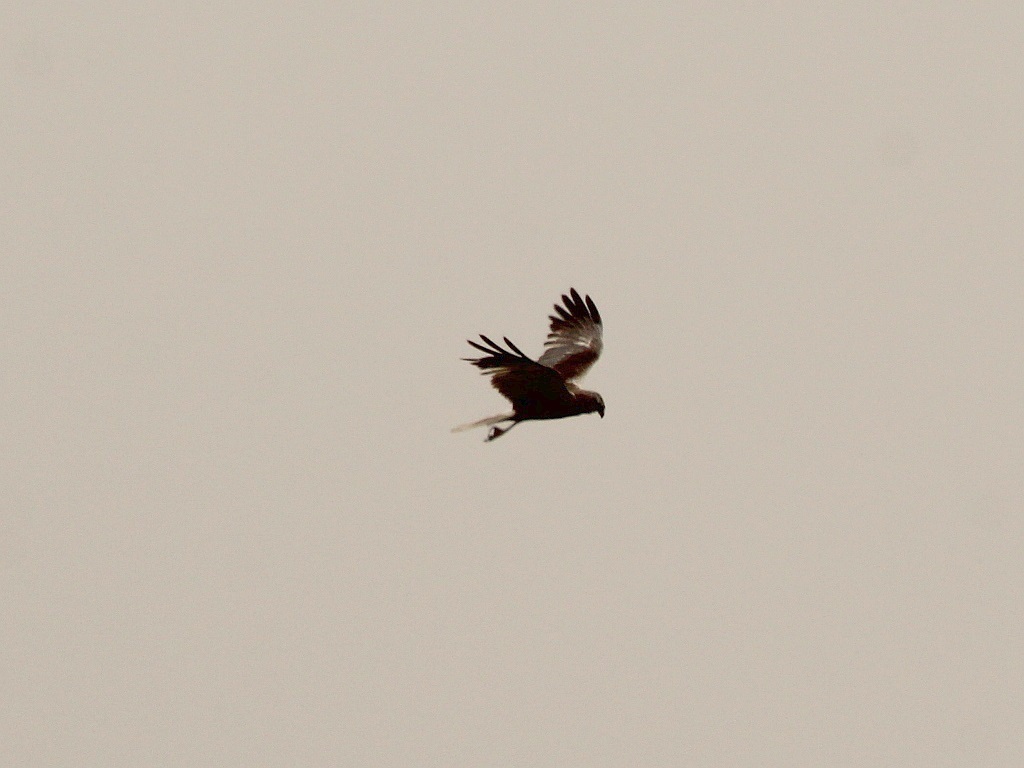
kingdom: Animalia
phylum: Chordata
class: Aves
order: Accipitriformes
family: Accipitridae
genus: Circus
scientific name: Circus aeruginosus
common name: Western marsh harrier
